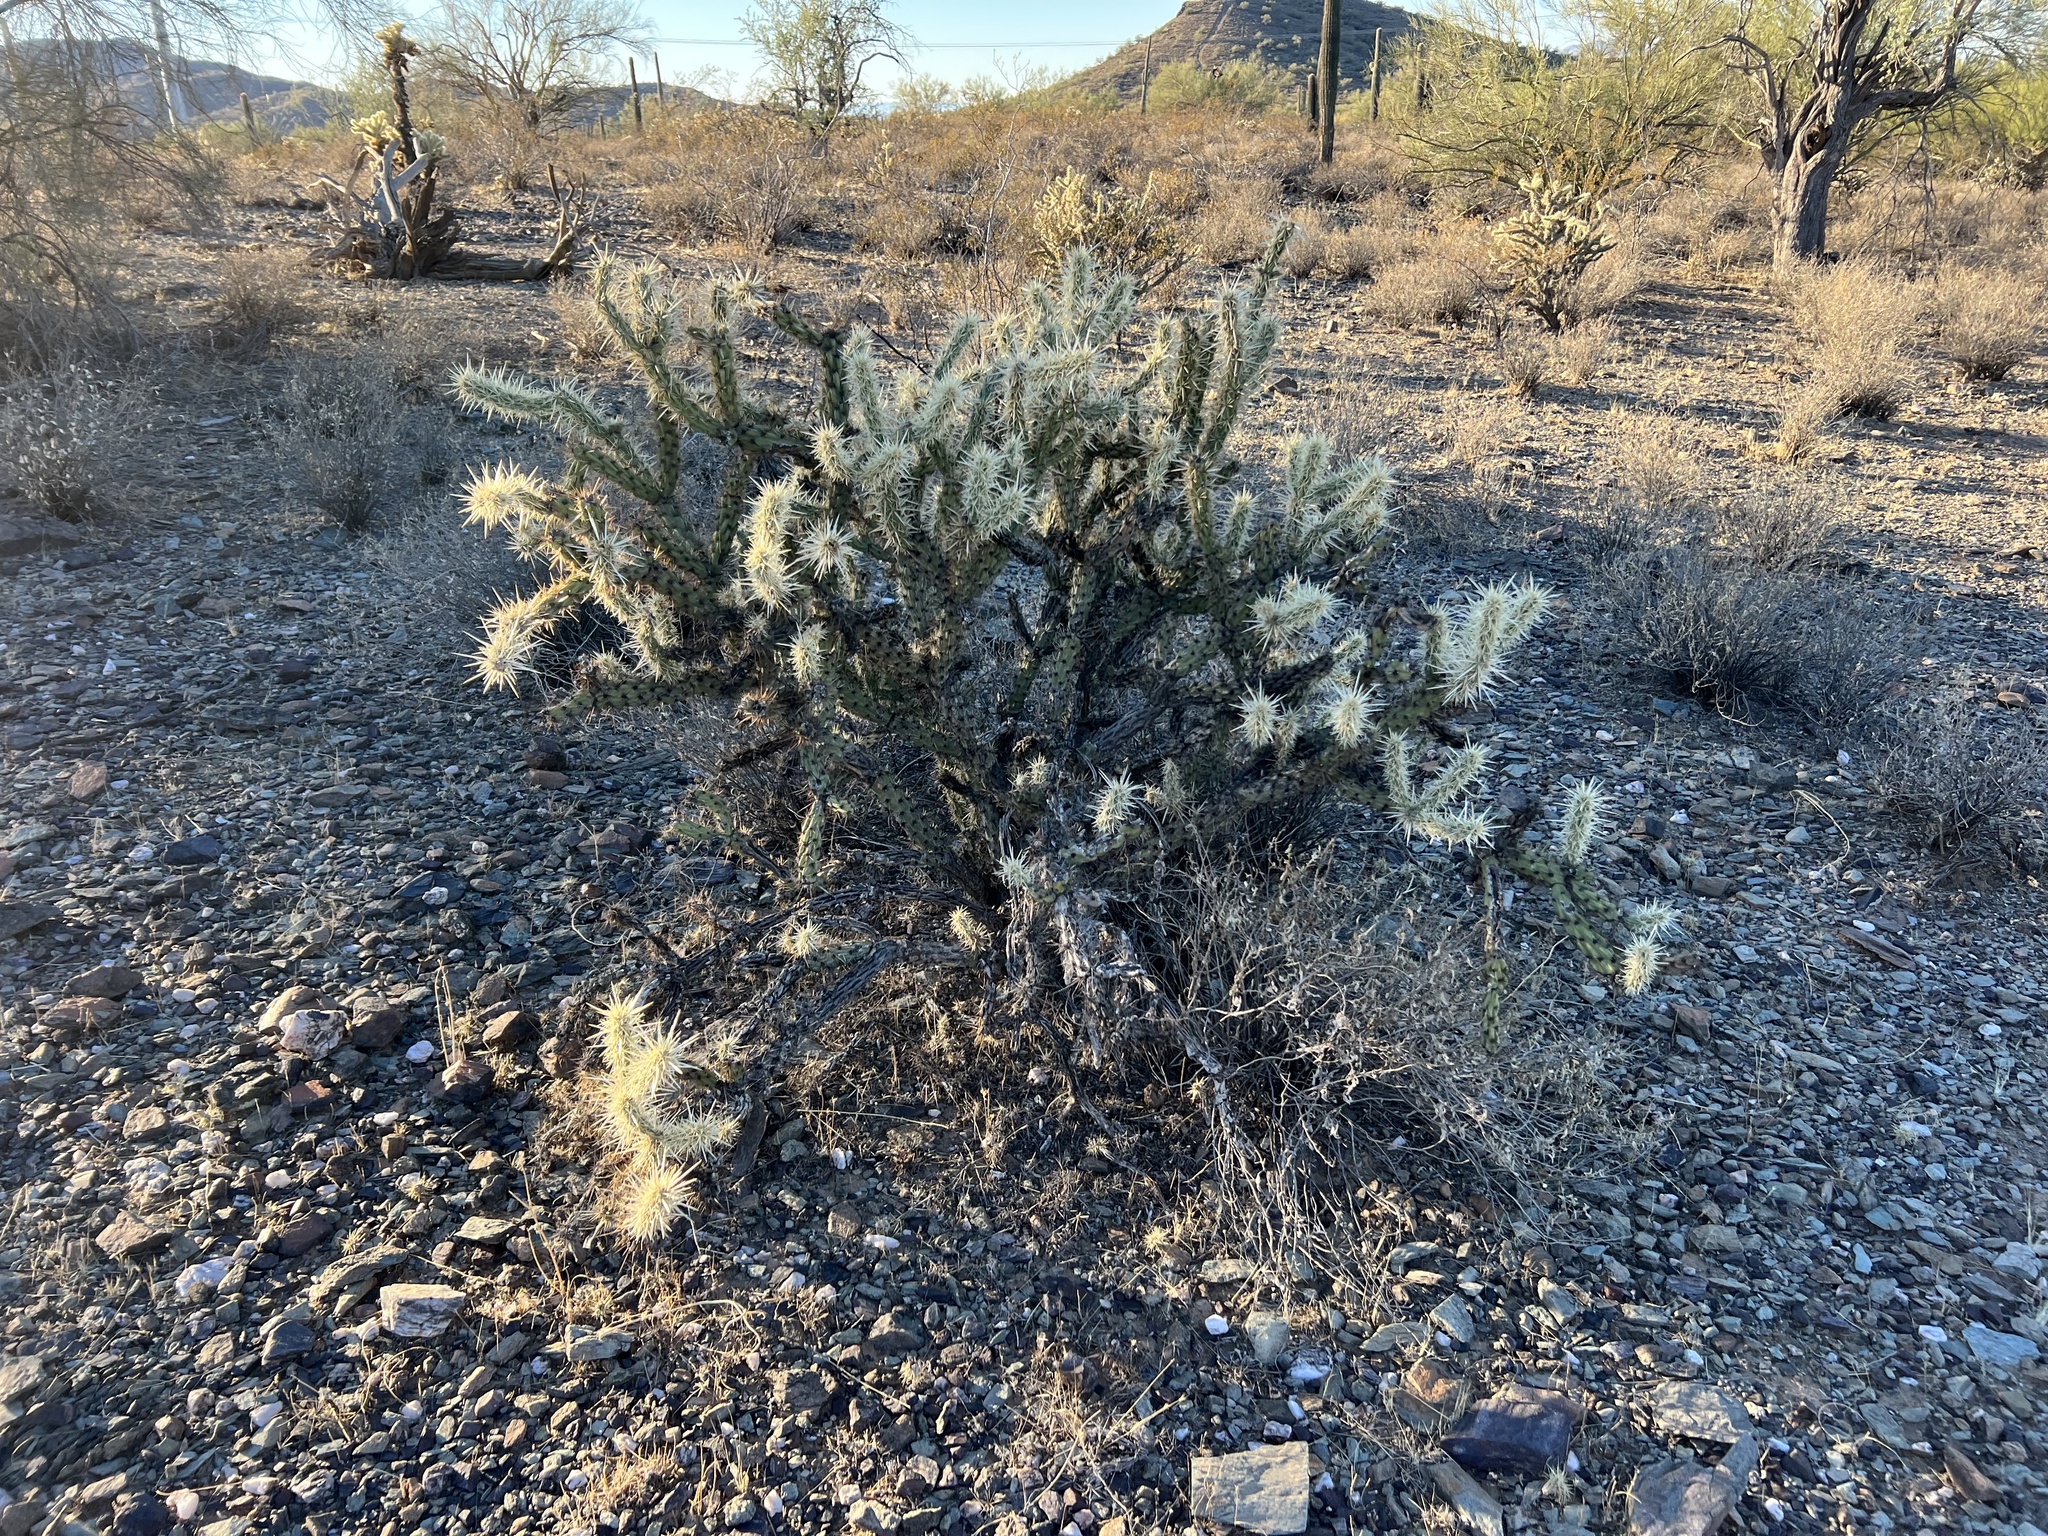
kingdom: Plantae
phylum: Tracheophyta
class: Magnoliopsida
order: Caryophyllales
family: Cactaceae
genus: Cylindropuntia
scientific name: Cylindropuntia acanthocarpa
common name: Buckhorn cholla
